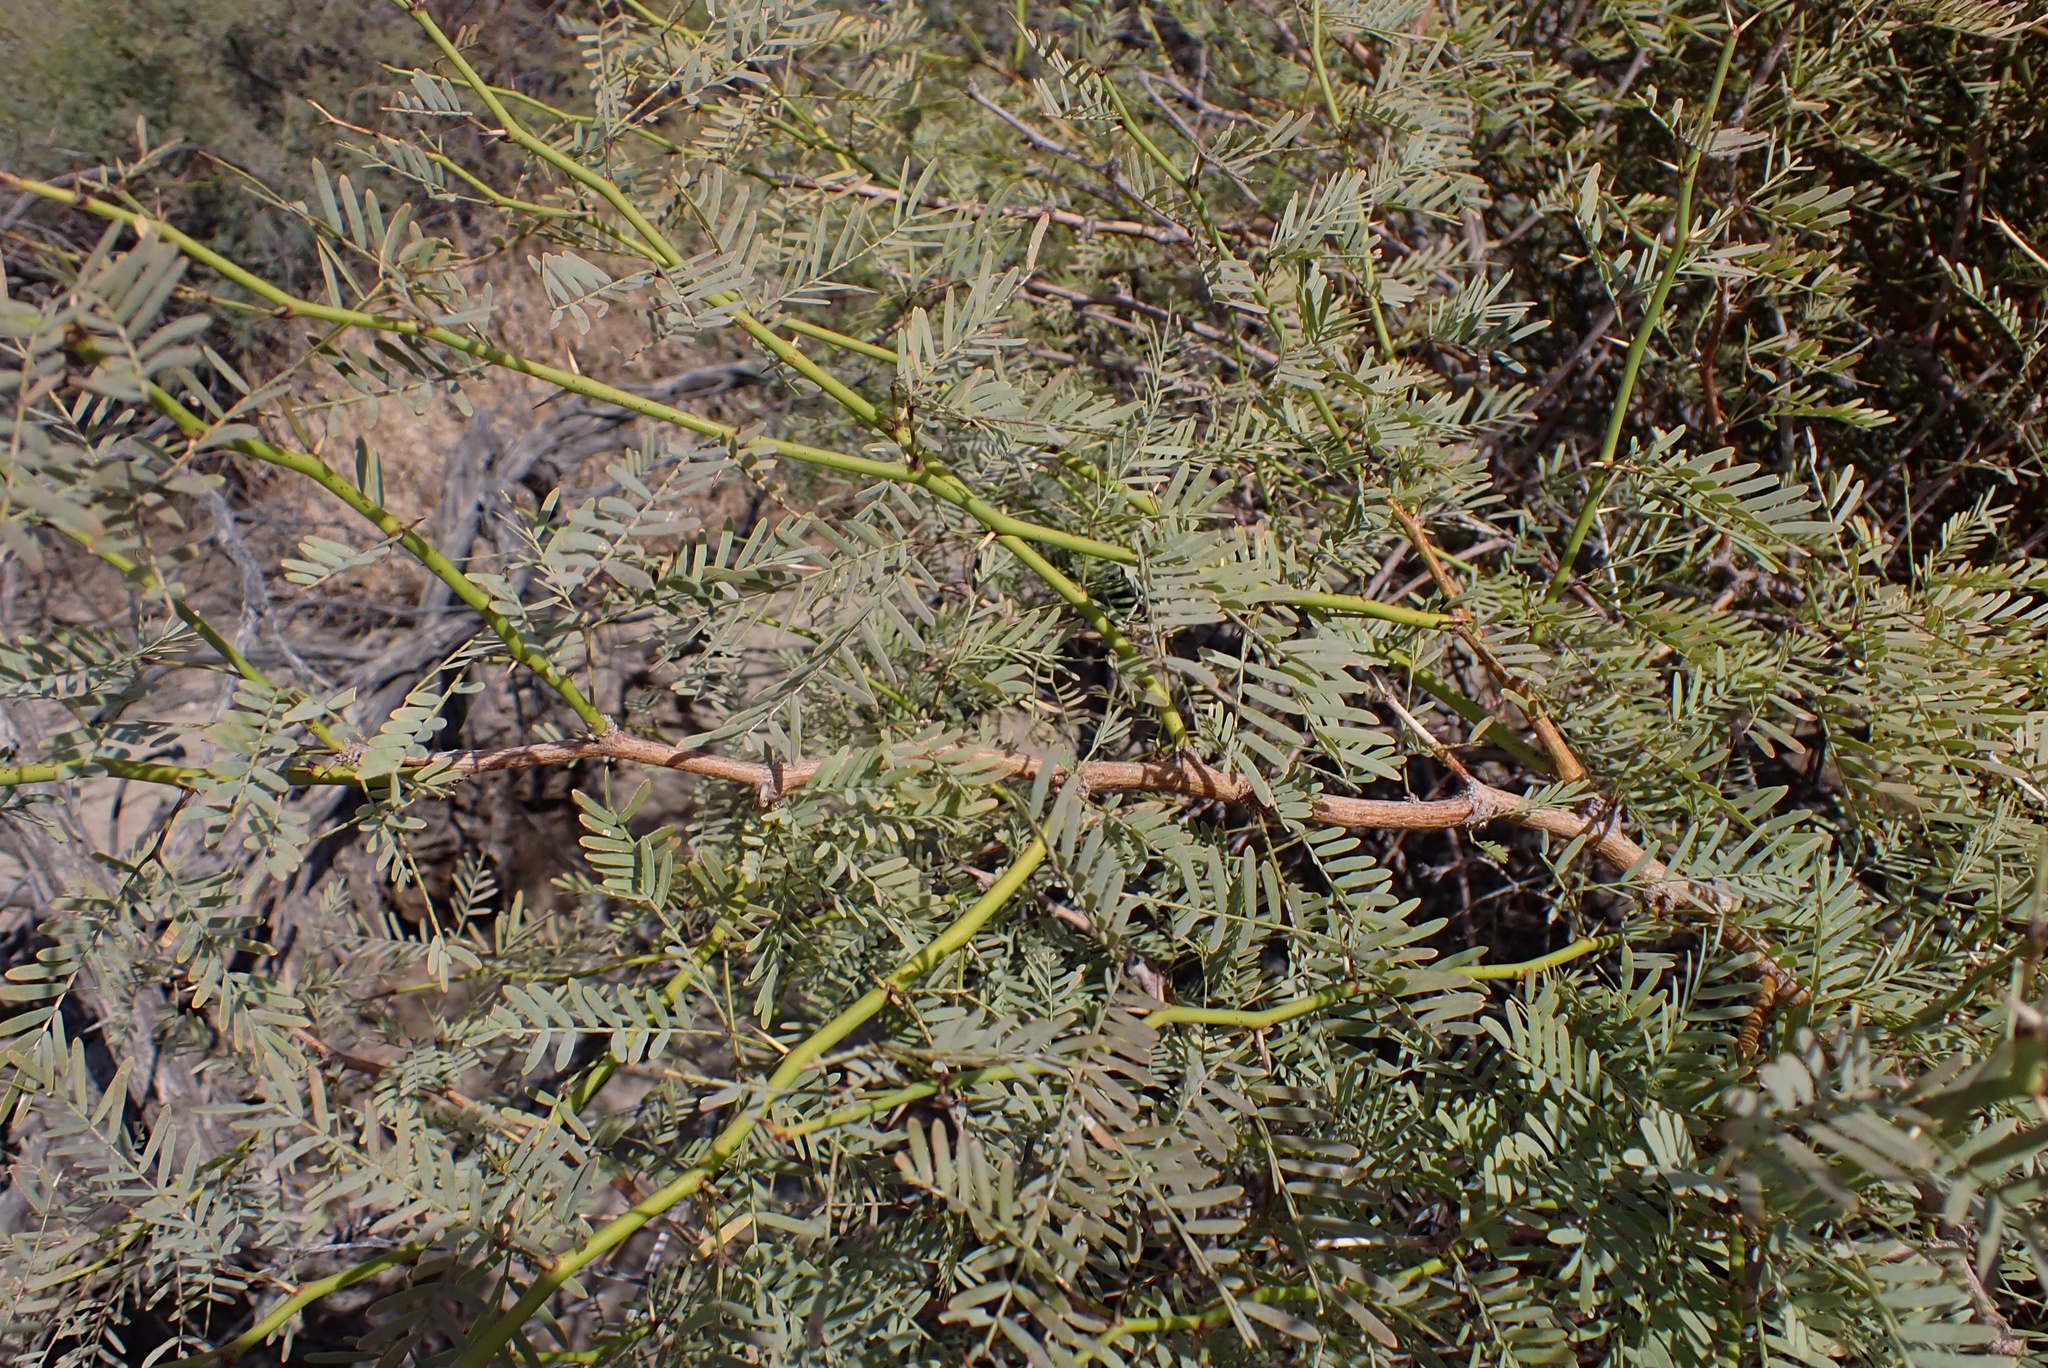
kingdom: Plantae
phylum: Tracheophyta
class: Magnoliopsida
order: Fabales
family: Fabaceae
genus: Prosopis
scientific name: Prosopis pubescens
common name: Screw-bean
